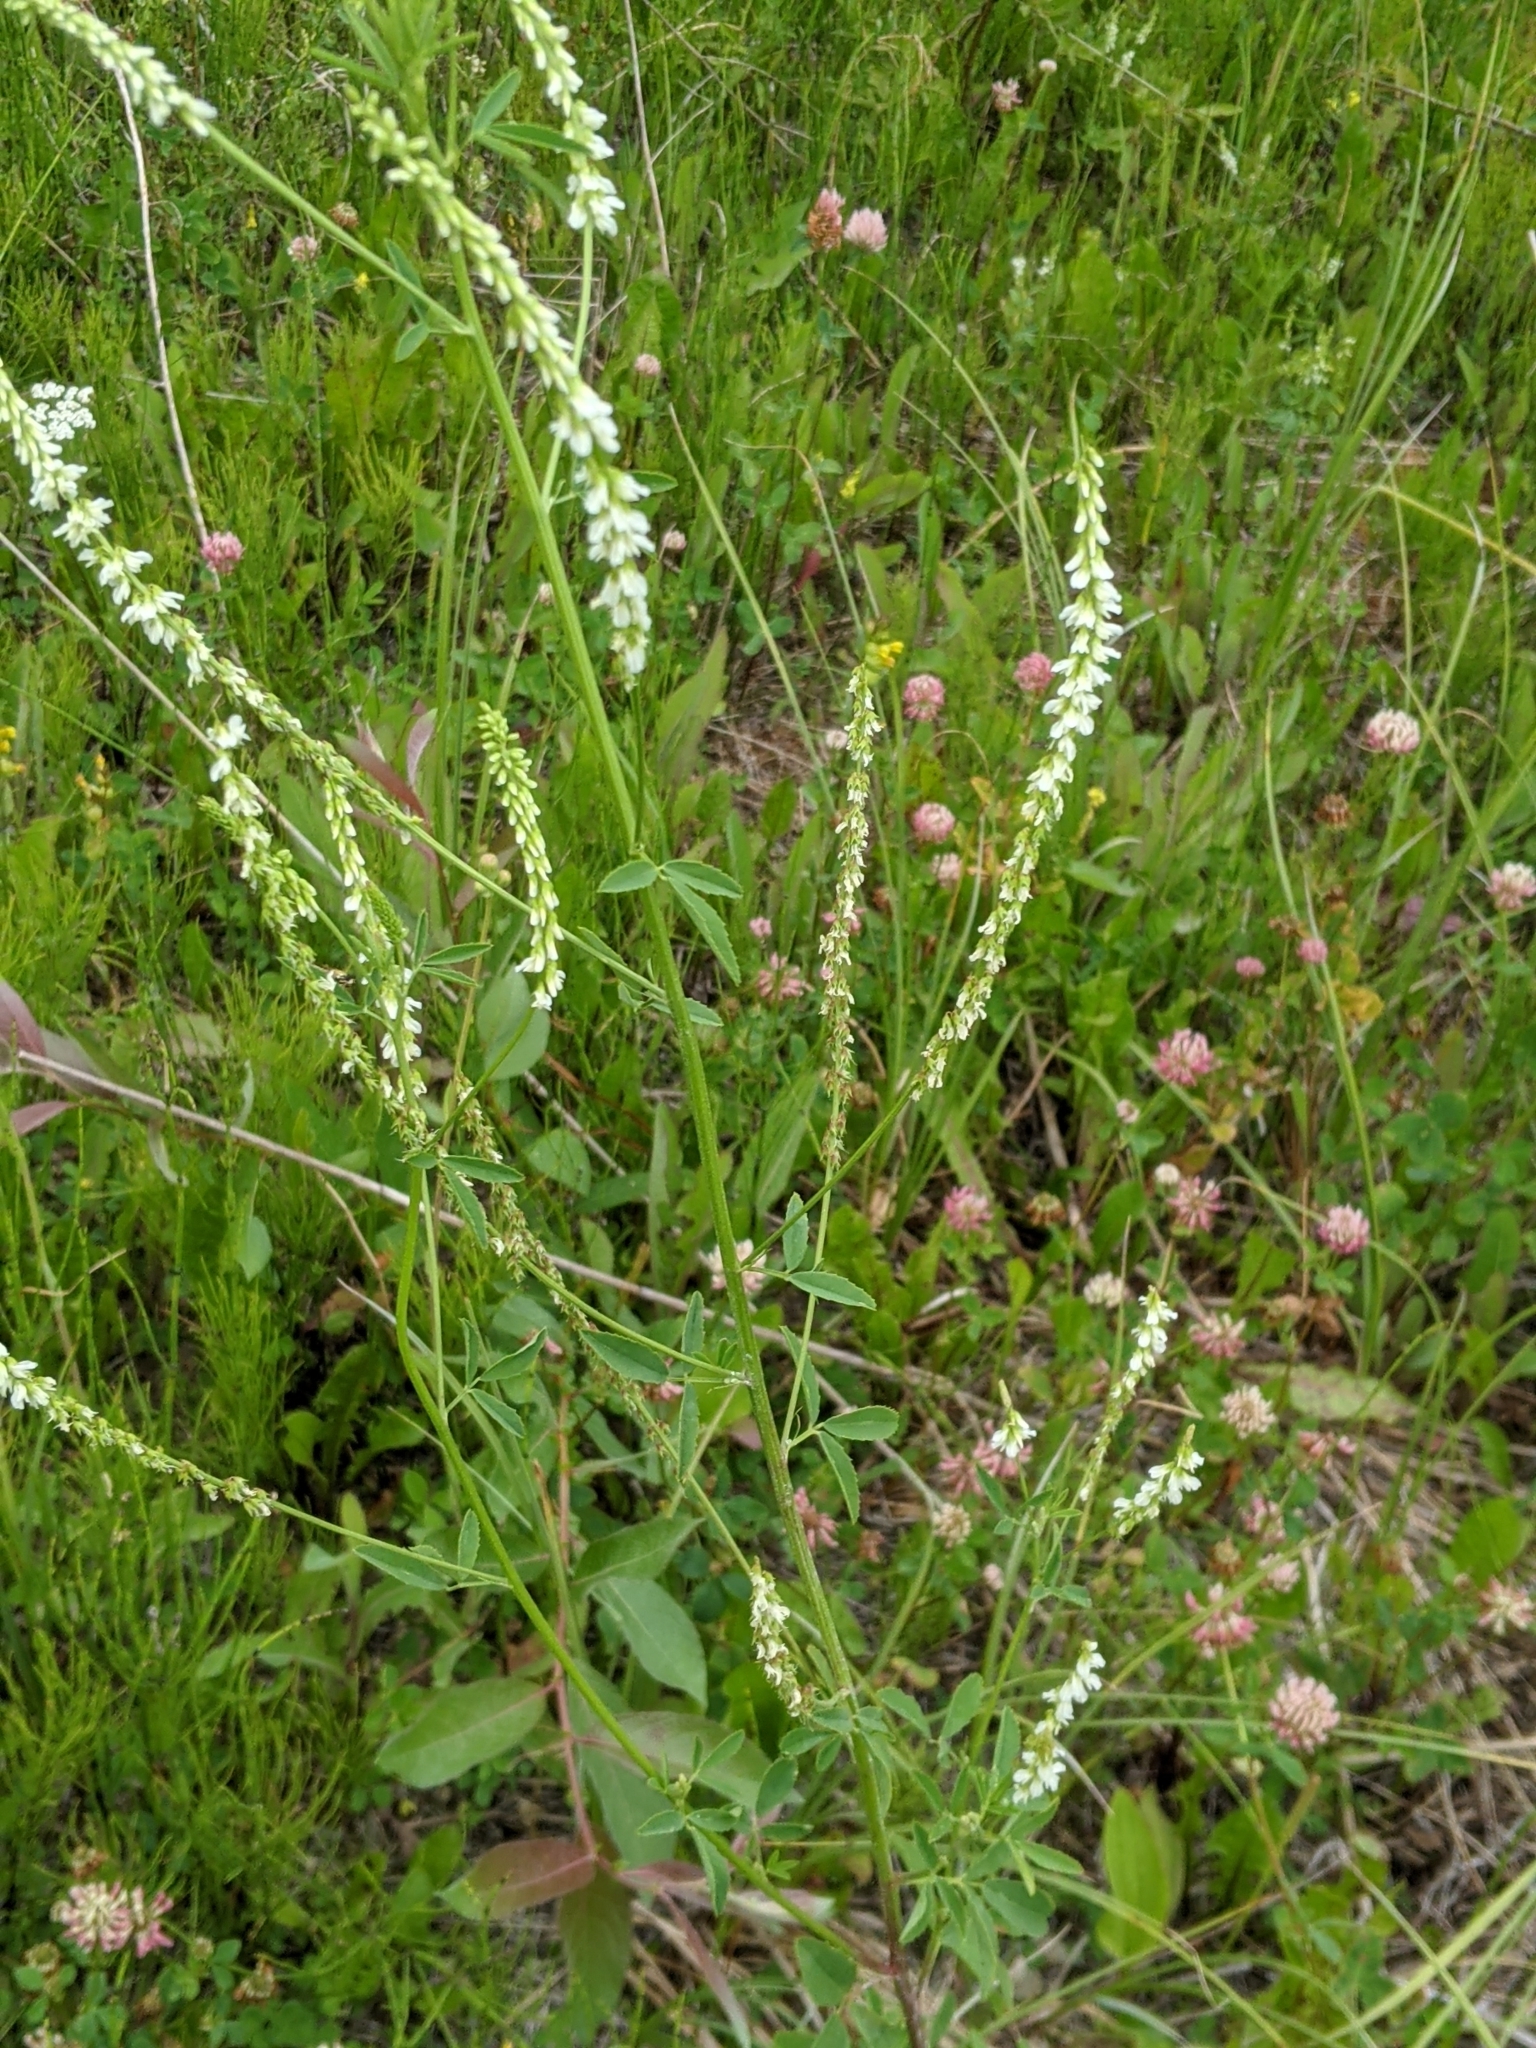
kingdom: Plantae
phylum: Tracheophyta
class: Magnoliopsida
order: Fabales
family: Fabaceae
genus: Melilotus
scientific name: Melilotus albus
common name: White melilot
